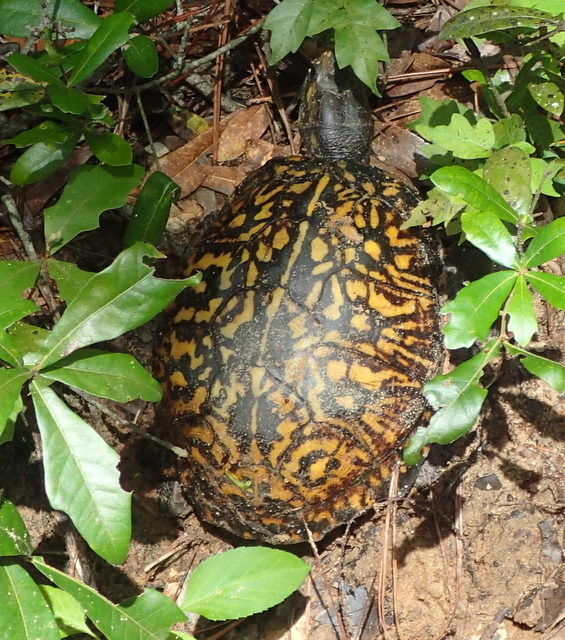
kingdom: Animalia
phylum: Chordata
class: Testudines
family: Emydidae
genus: Terrapene
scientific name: Terrapene carolina
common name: Common box turtle
